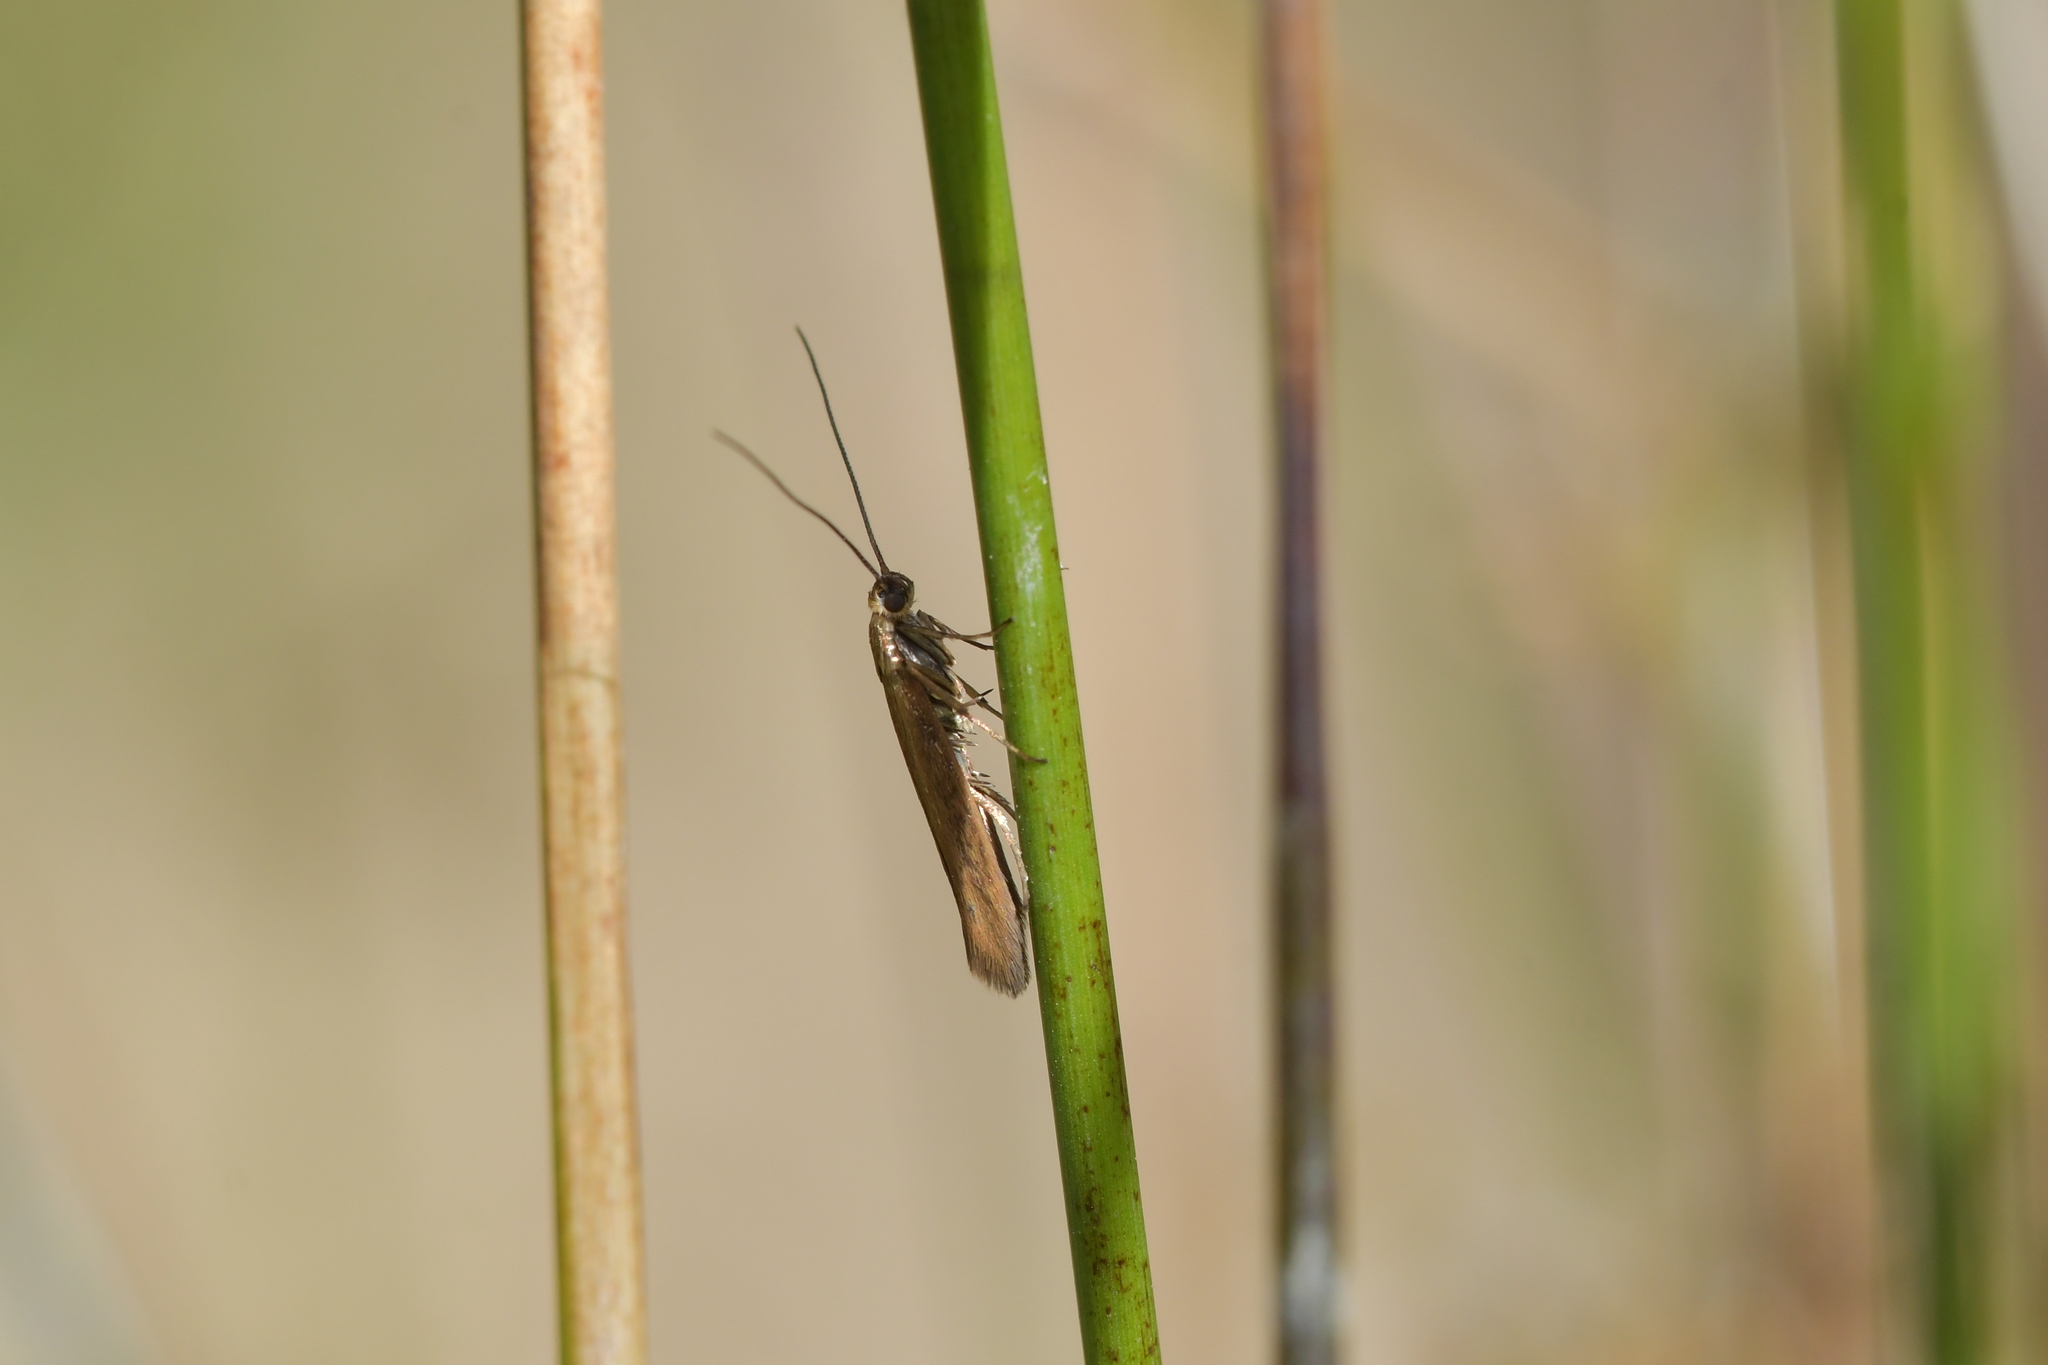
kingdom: Animalia
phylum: Arthropoda
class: Insecta
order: Lepidoptera
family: Glyphipterigidae
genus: Pantosperma
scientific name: Pantosperma holochalca
